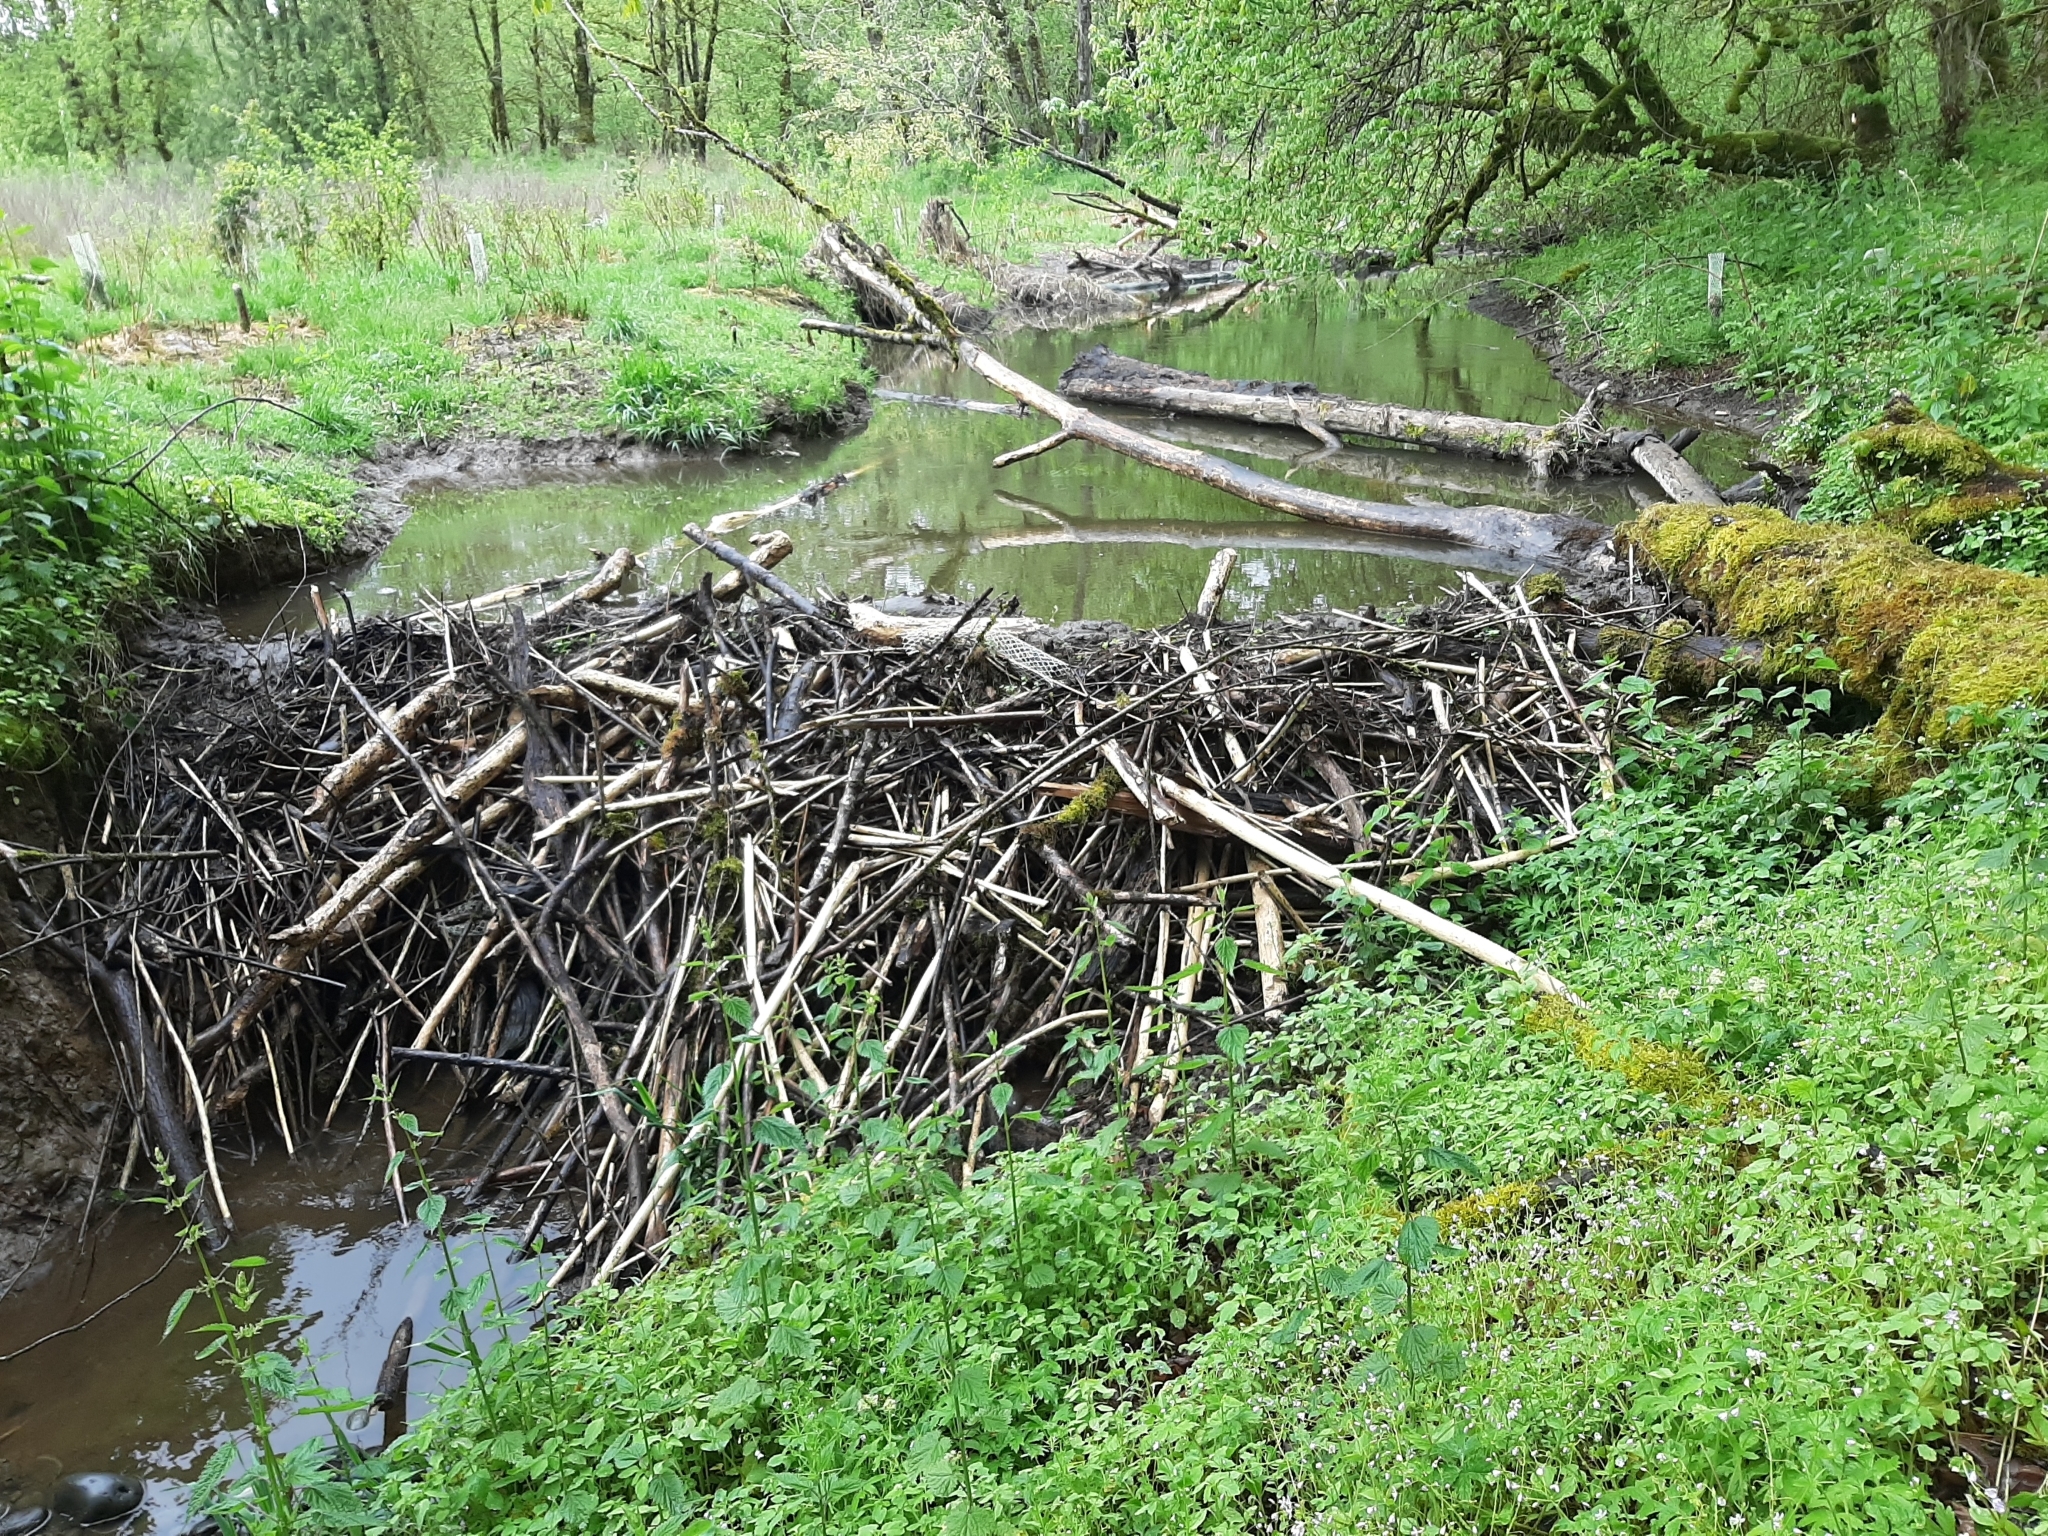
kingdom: Animalia
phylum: Chordata
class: Mammalia
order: Rodentia
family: Castoridae
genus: Castor
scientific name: Castor canadensis
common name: American beaver
